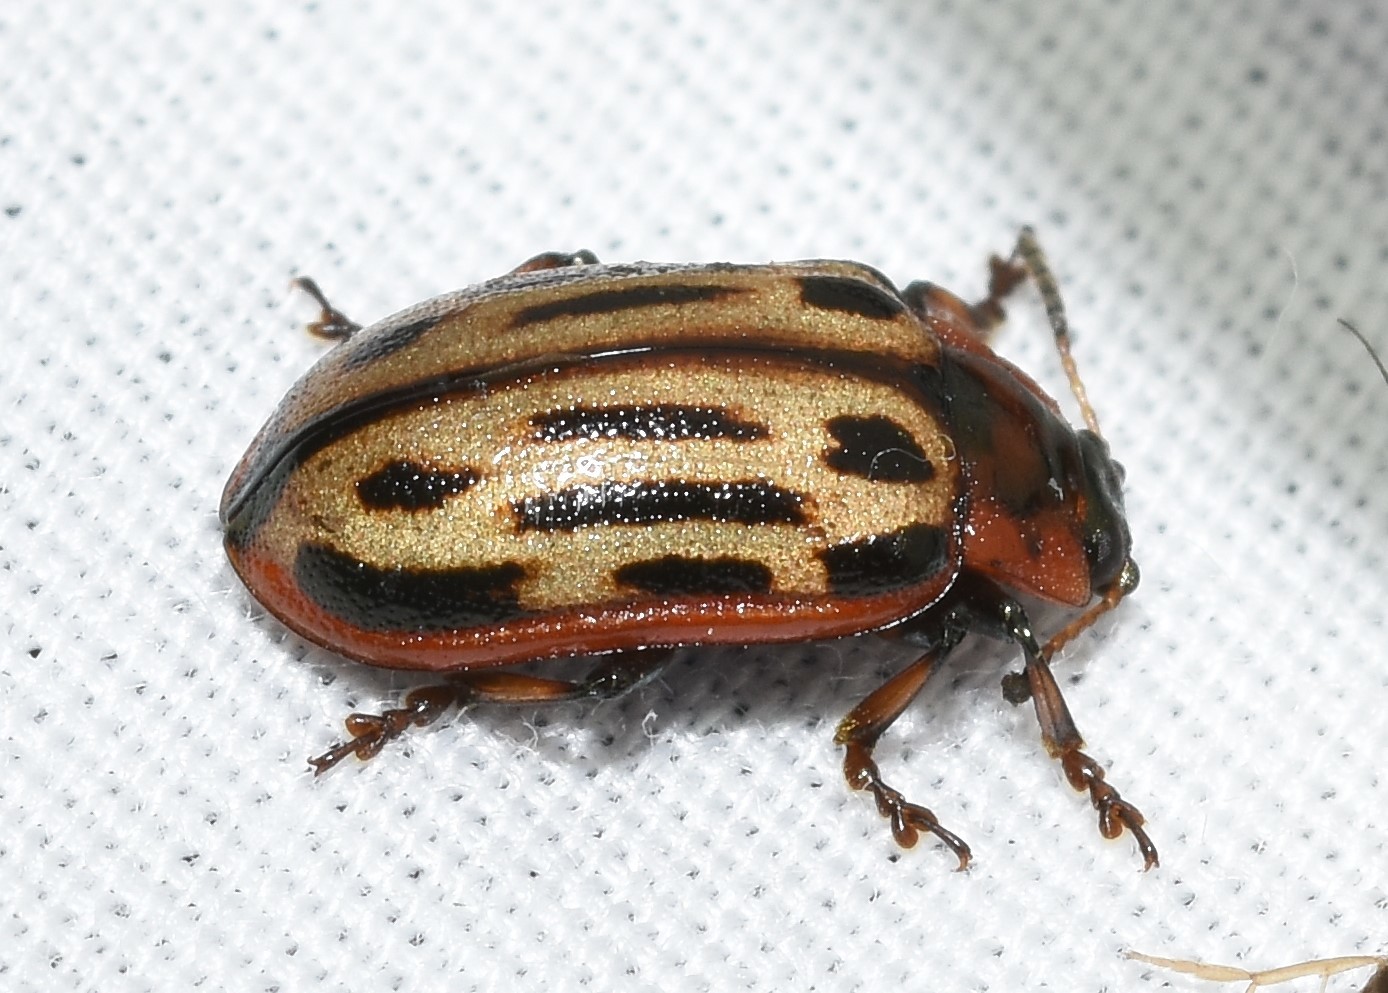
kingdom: Animalia
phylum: Arthropoda
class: Insecta
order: Coleoptera
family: Chrysomelidae
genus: Aethiopocassis
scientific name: Aethiopocassis scripta
